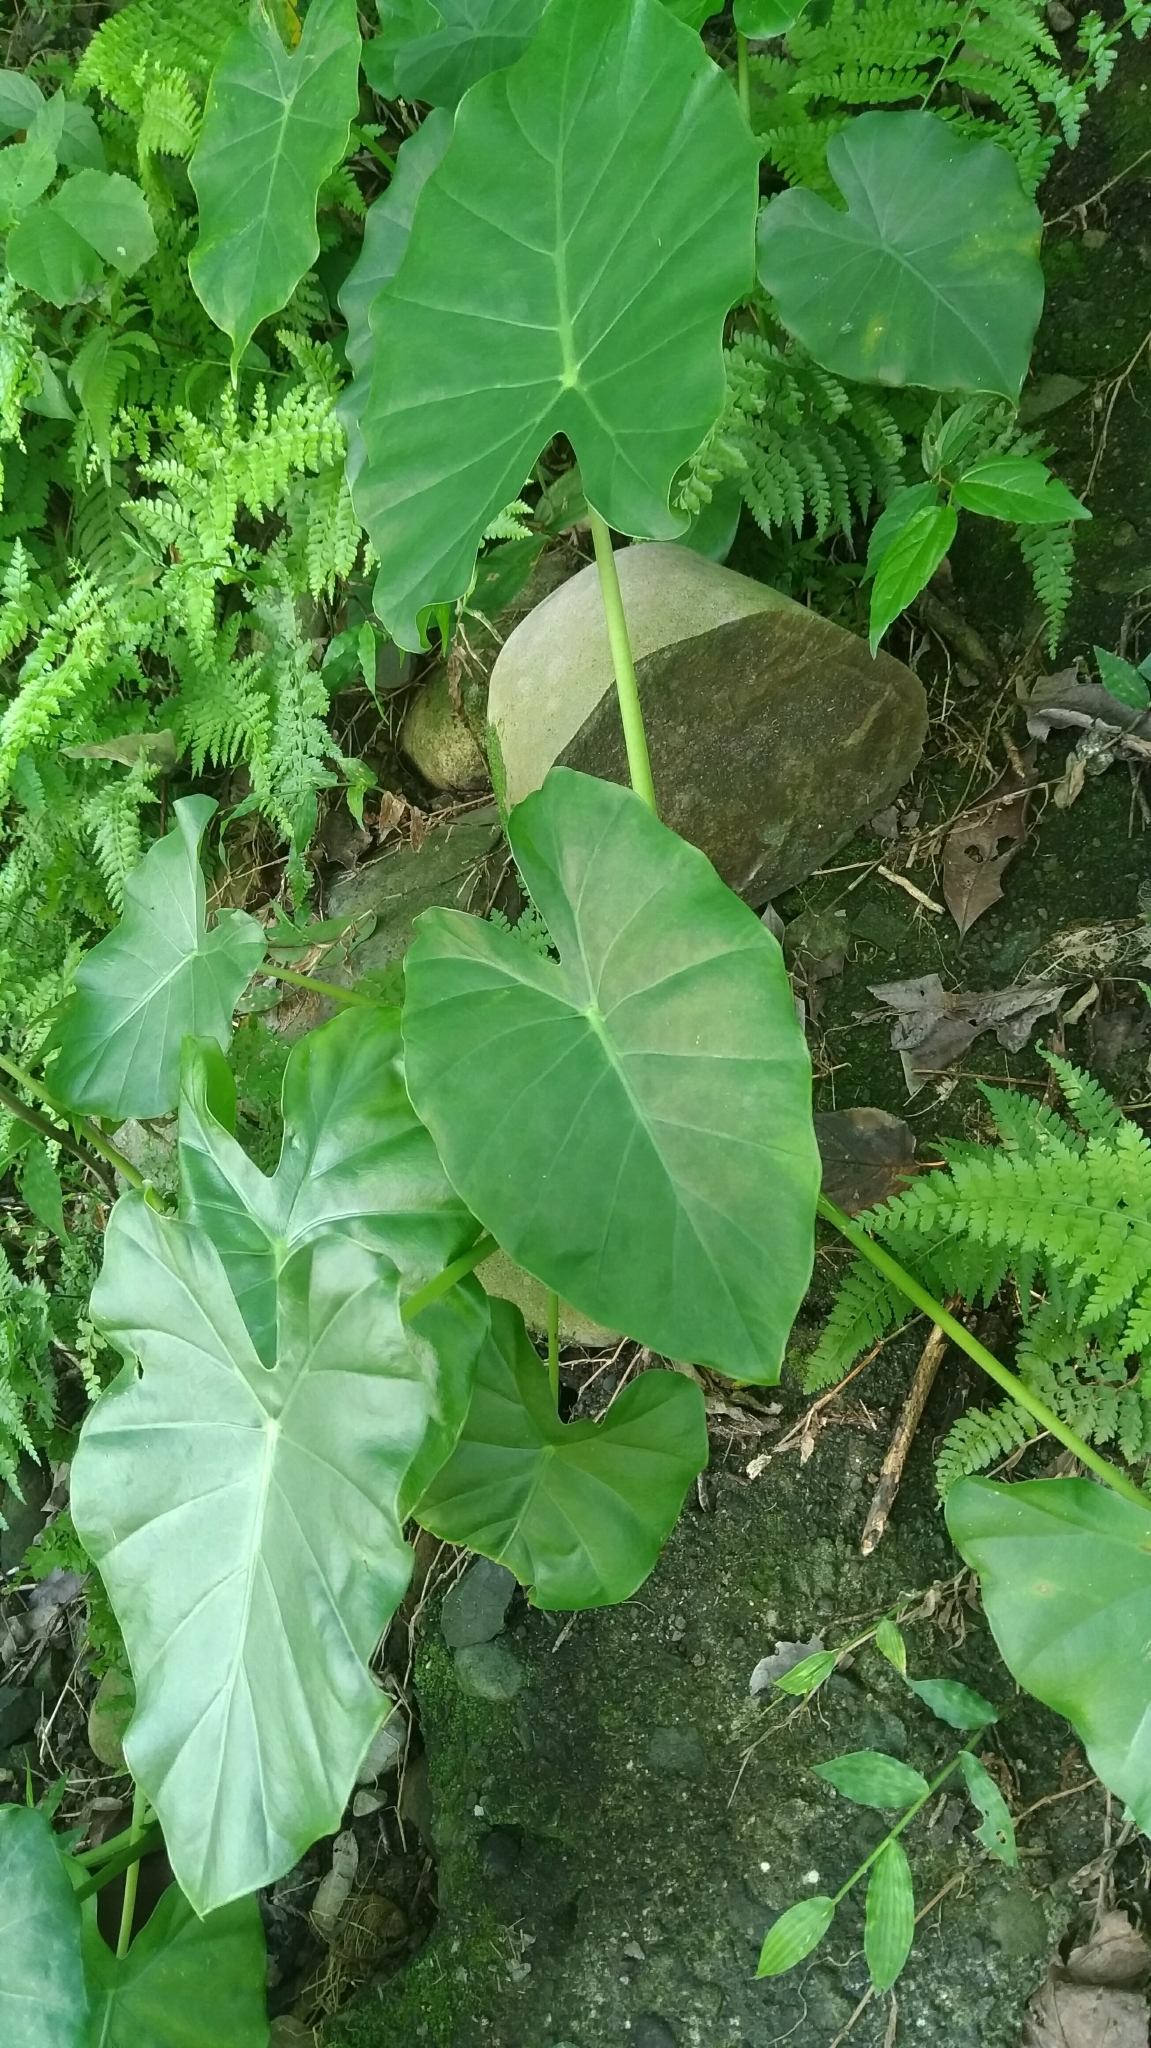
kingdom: Plantae
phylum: Tracheophyta
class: Liliopsida
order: Alismatales
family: Araceae
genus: Alocasia
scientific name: Alocasia odora
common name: Asian taro
